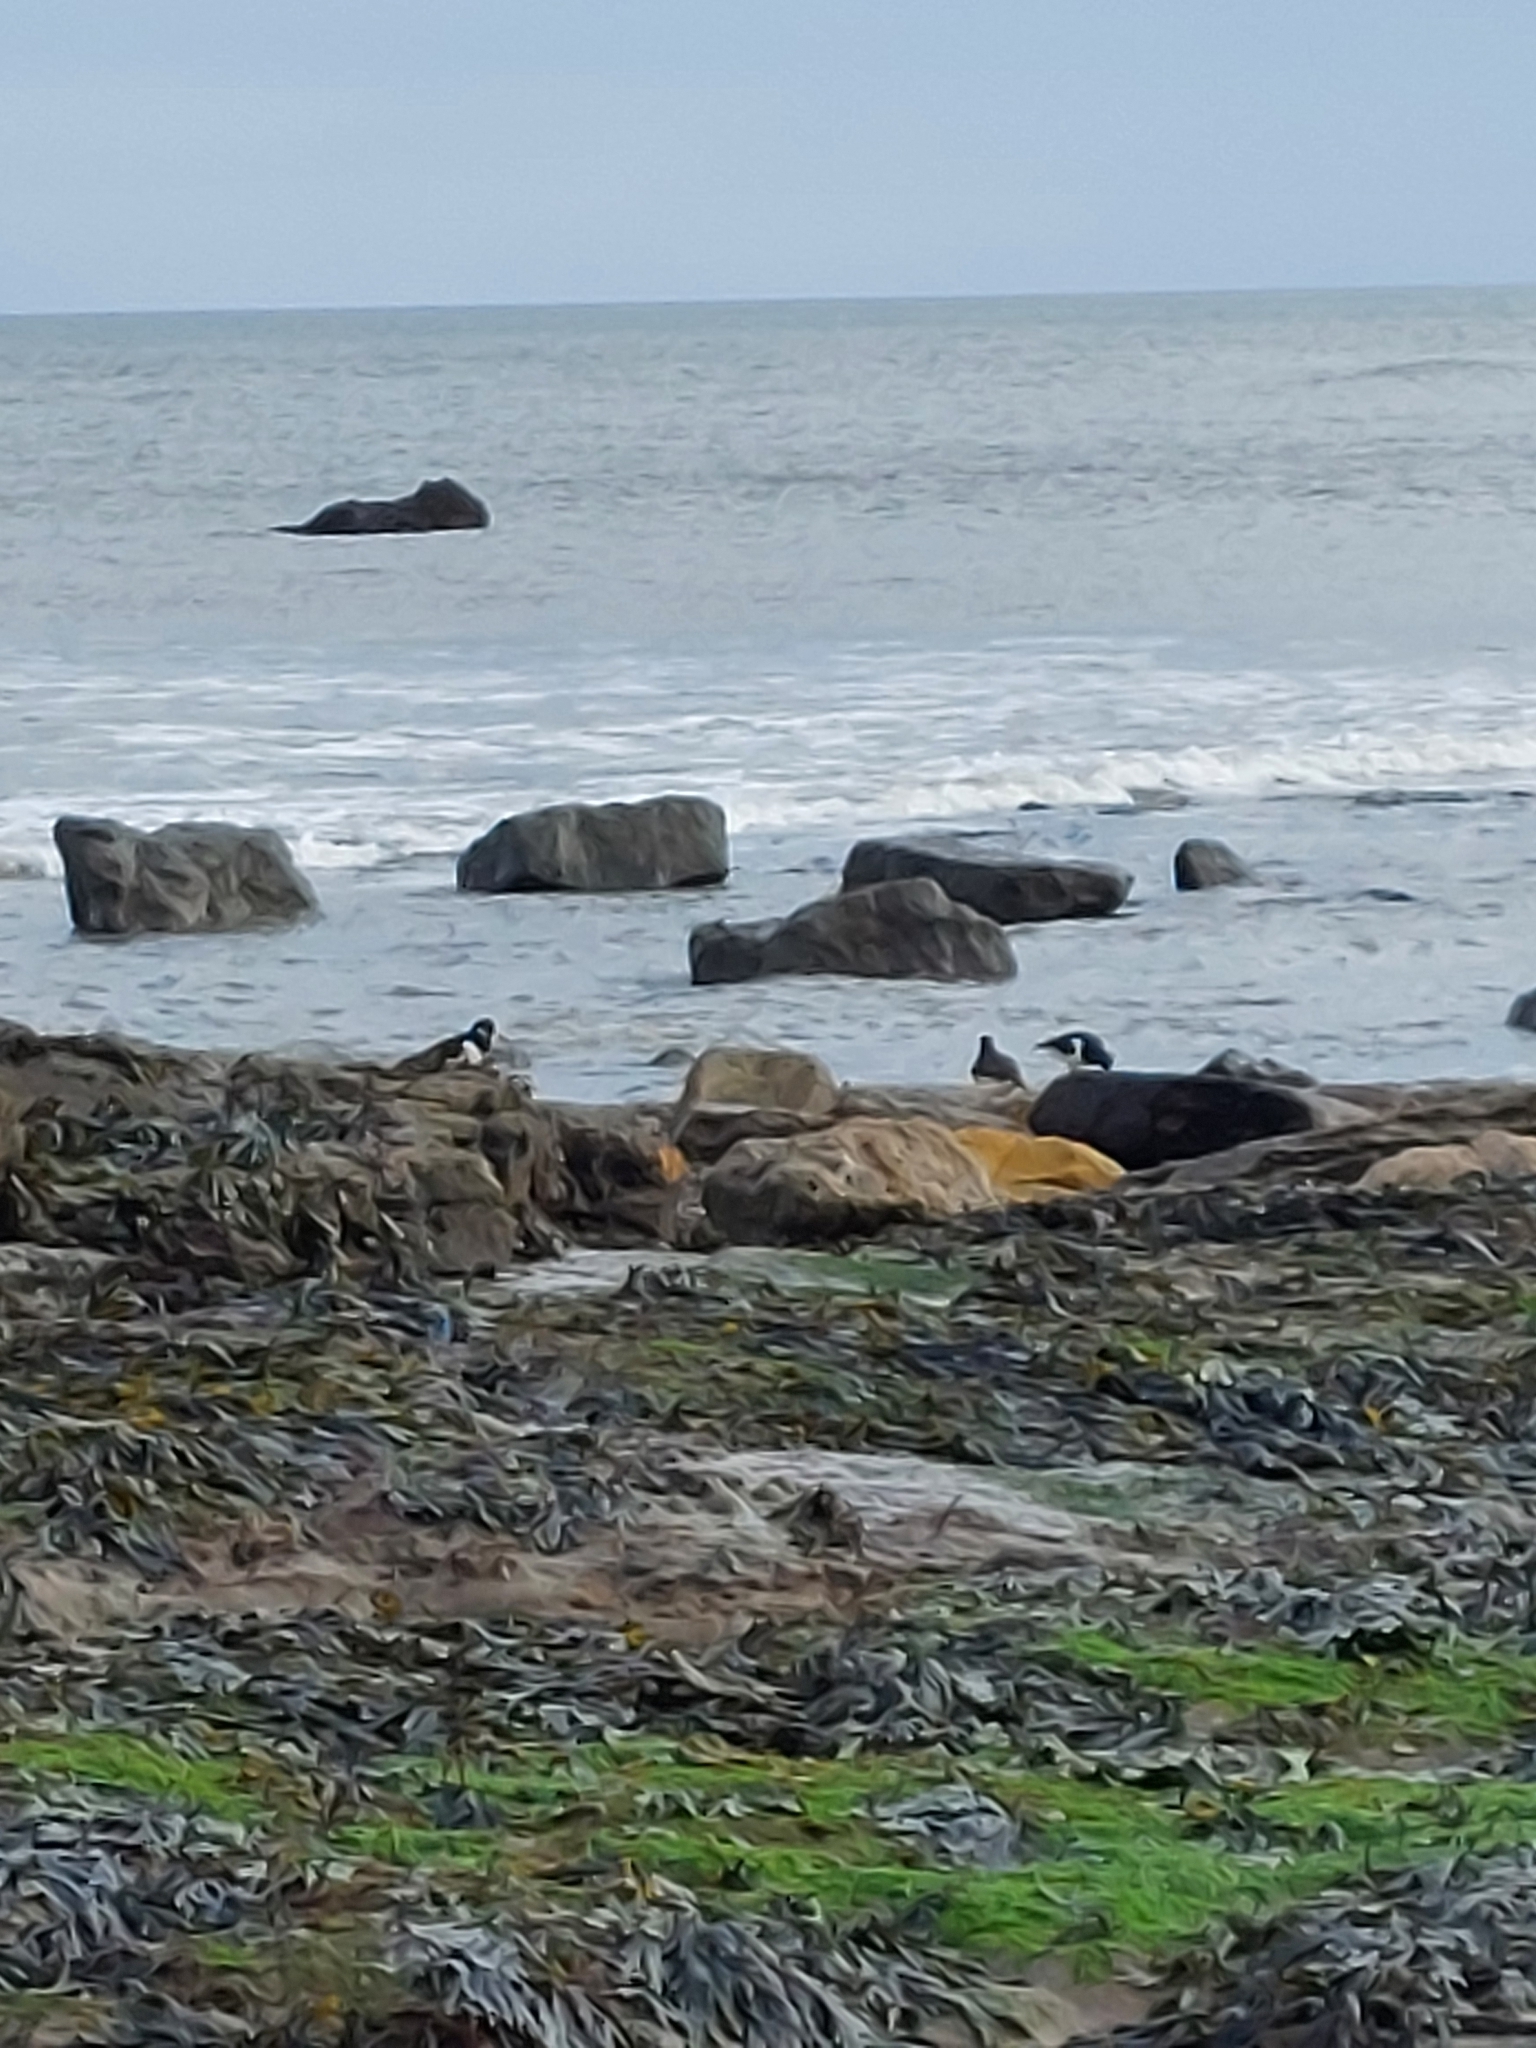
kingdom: Animalia
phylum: Chordata
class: Aves
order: Charadriiformes
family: Haematopodidae
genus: Haematopus
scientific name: Haematopus ostralegus
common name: Eurasian oystercatcher
